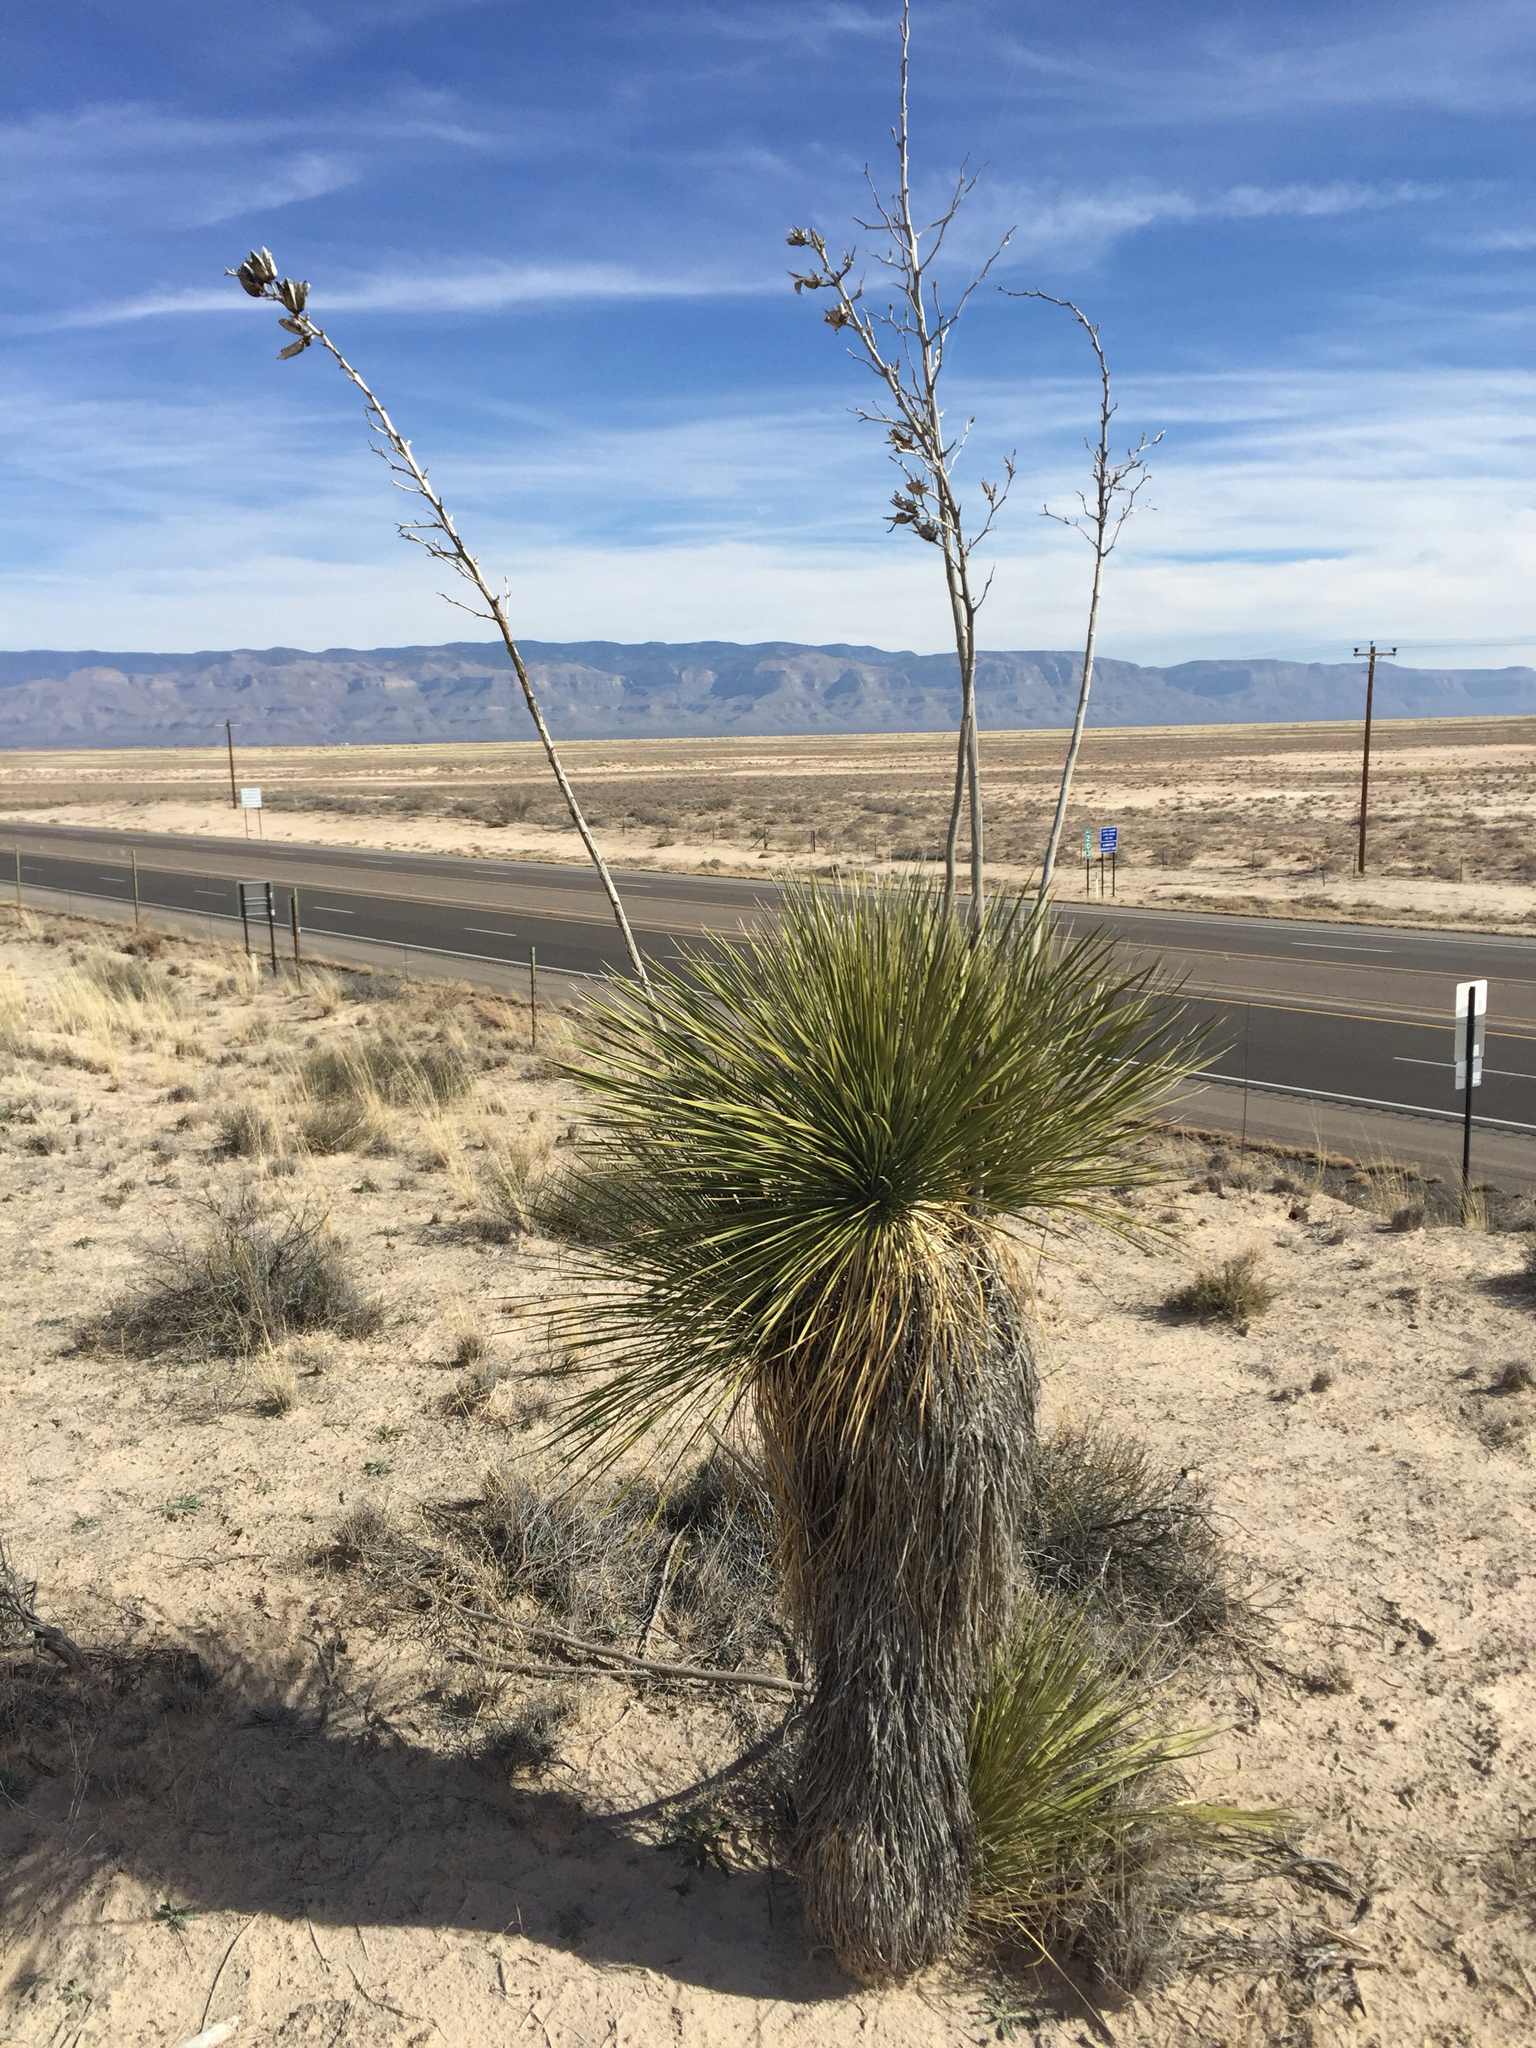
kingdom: Plantae
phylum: Tracheophyta
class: Liliopsida
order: Asparagales
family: Asparagaceae
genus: Yucca
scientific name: Yucca elata
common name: Palmella
